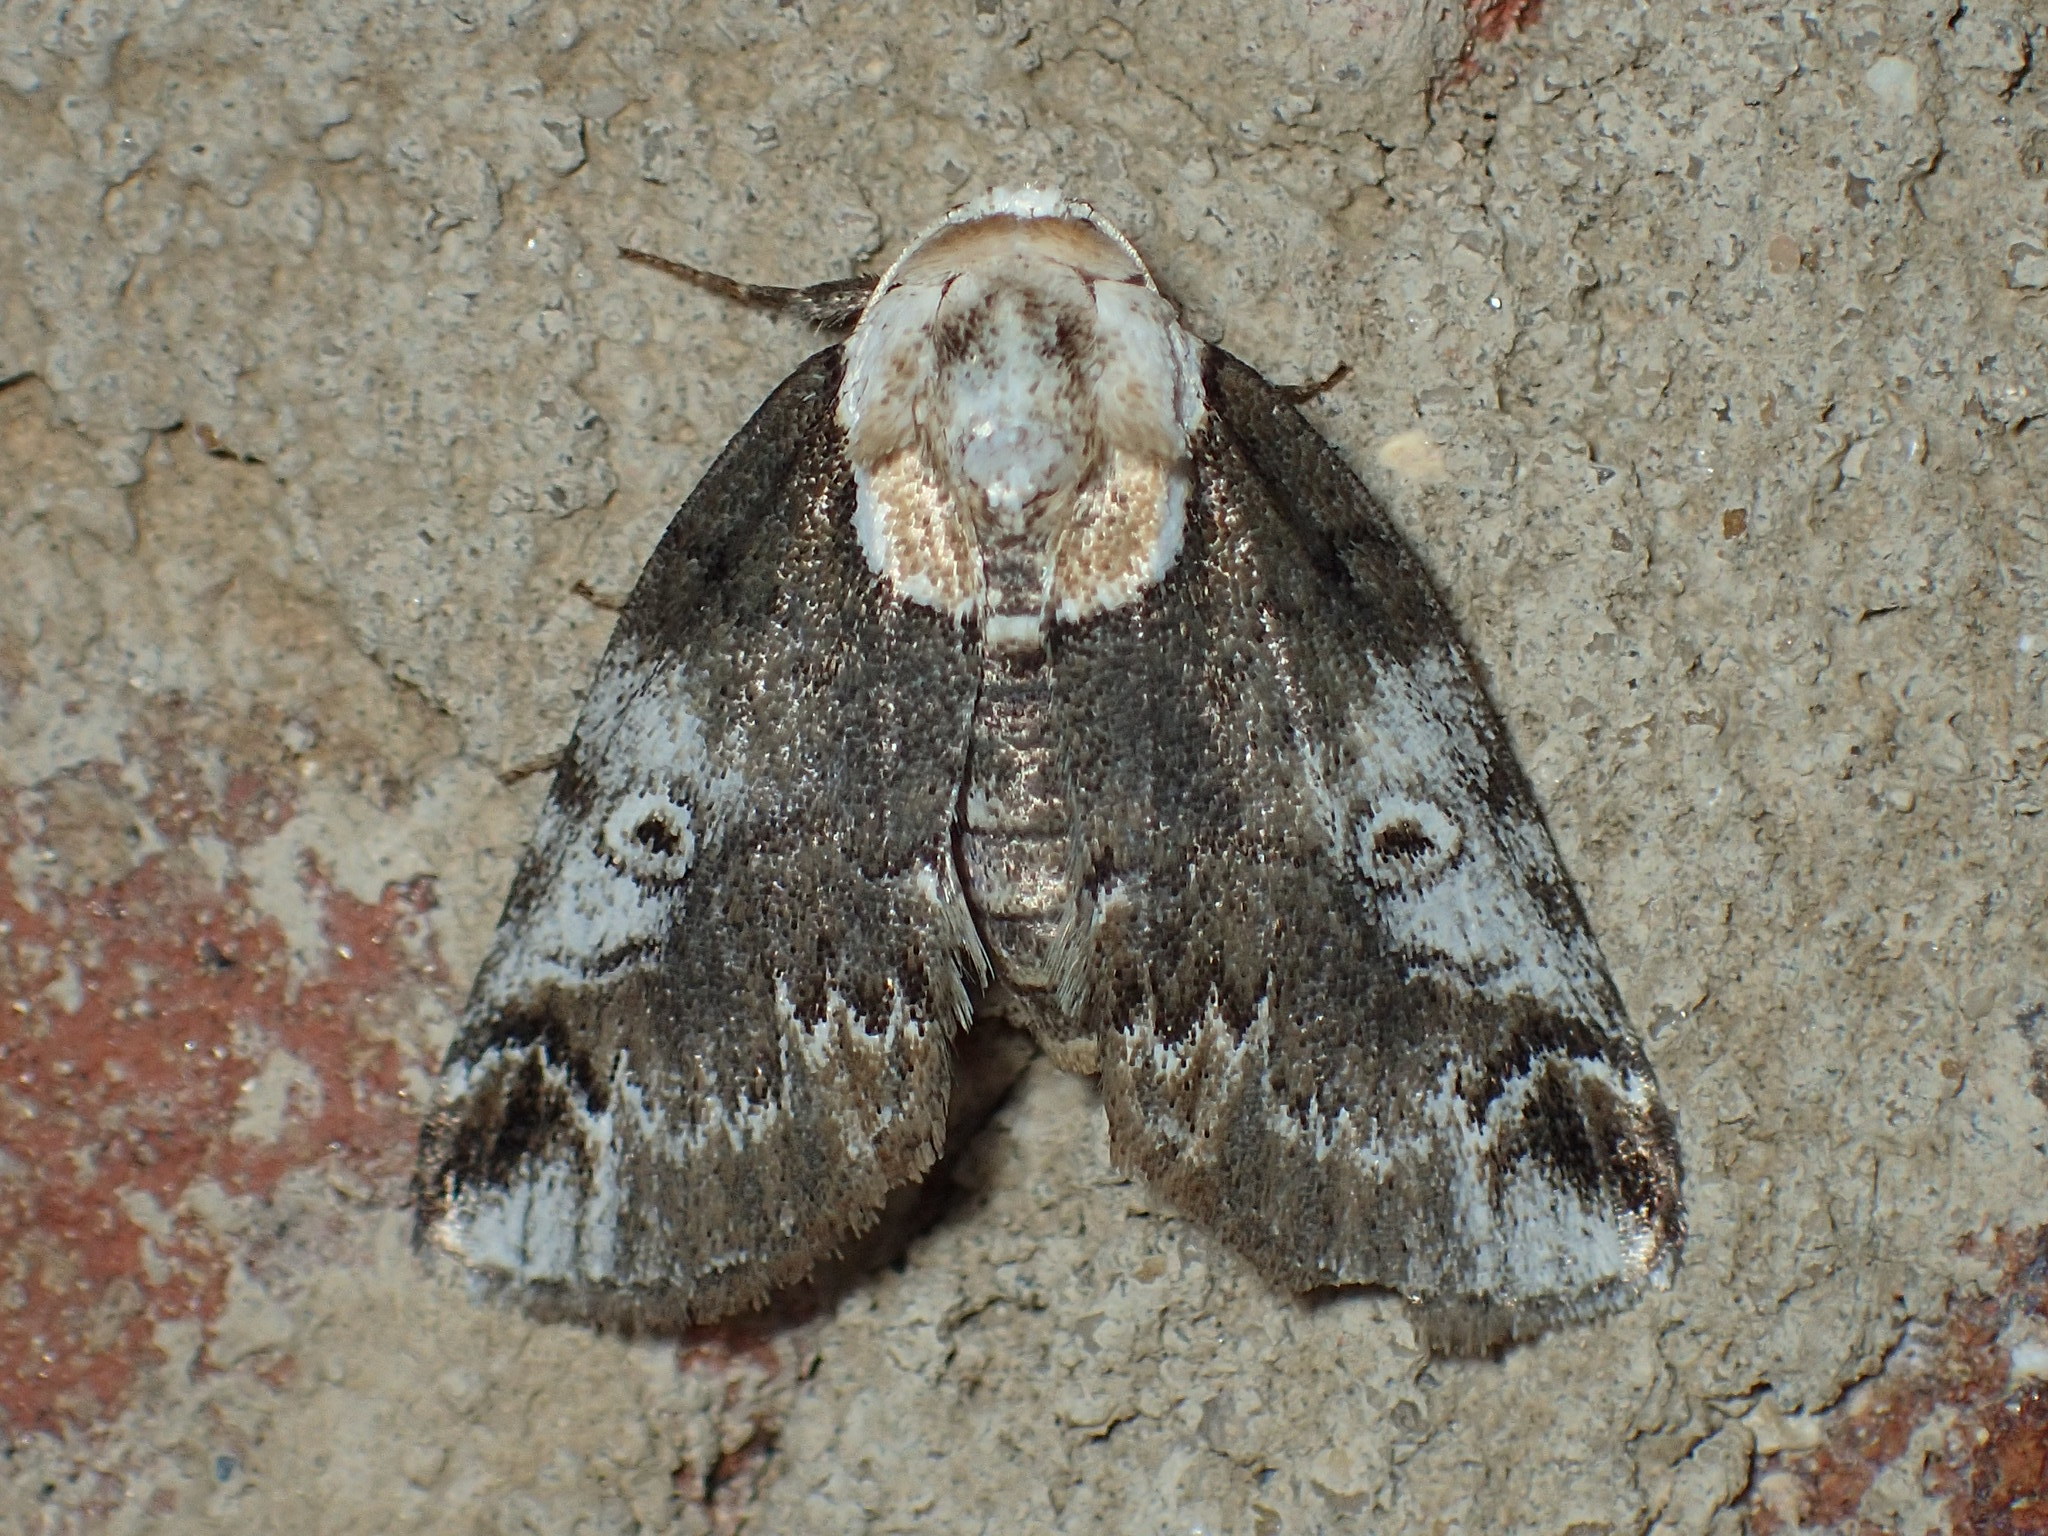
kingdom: Animalia
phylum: Arthropoda
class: Insecta
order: Lepidoptera
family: Nolidae
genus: Baileya
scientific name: Baileya ophthalmica
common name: Eyed baileya moth
